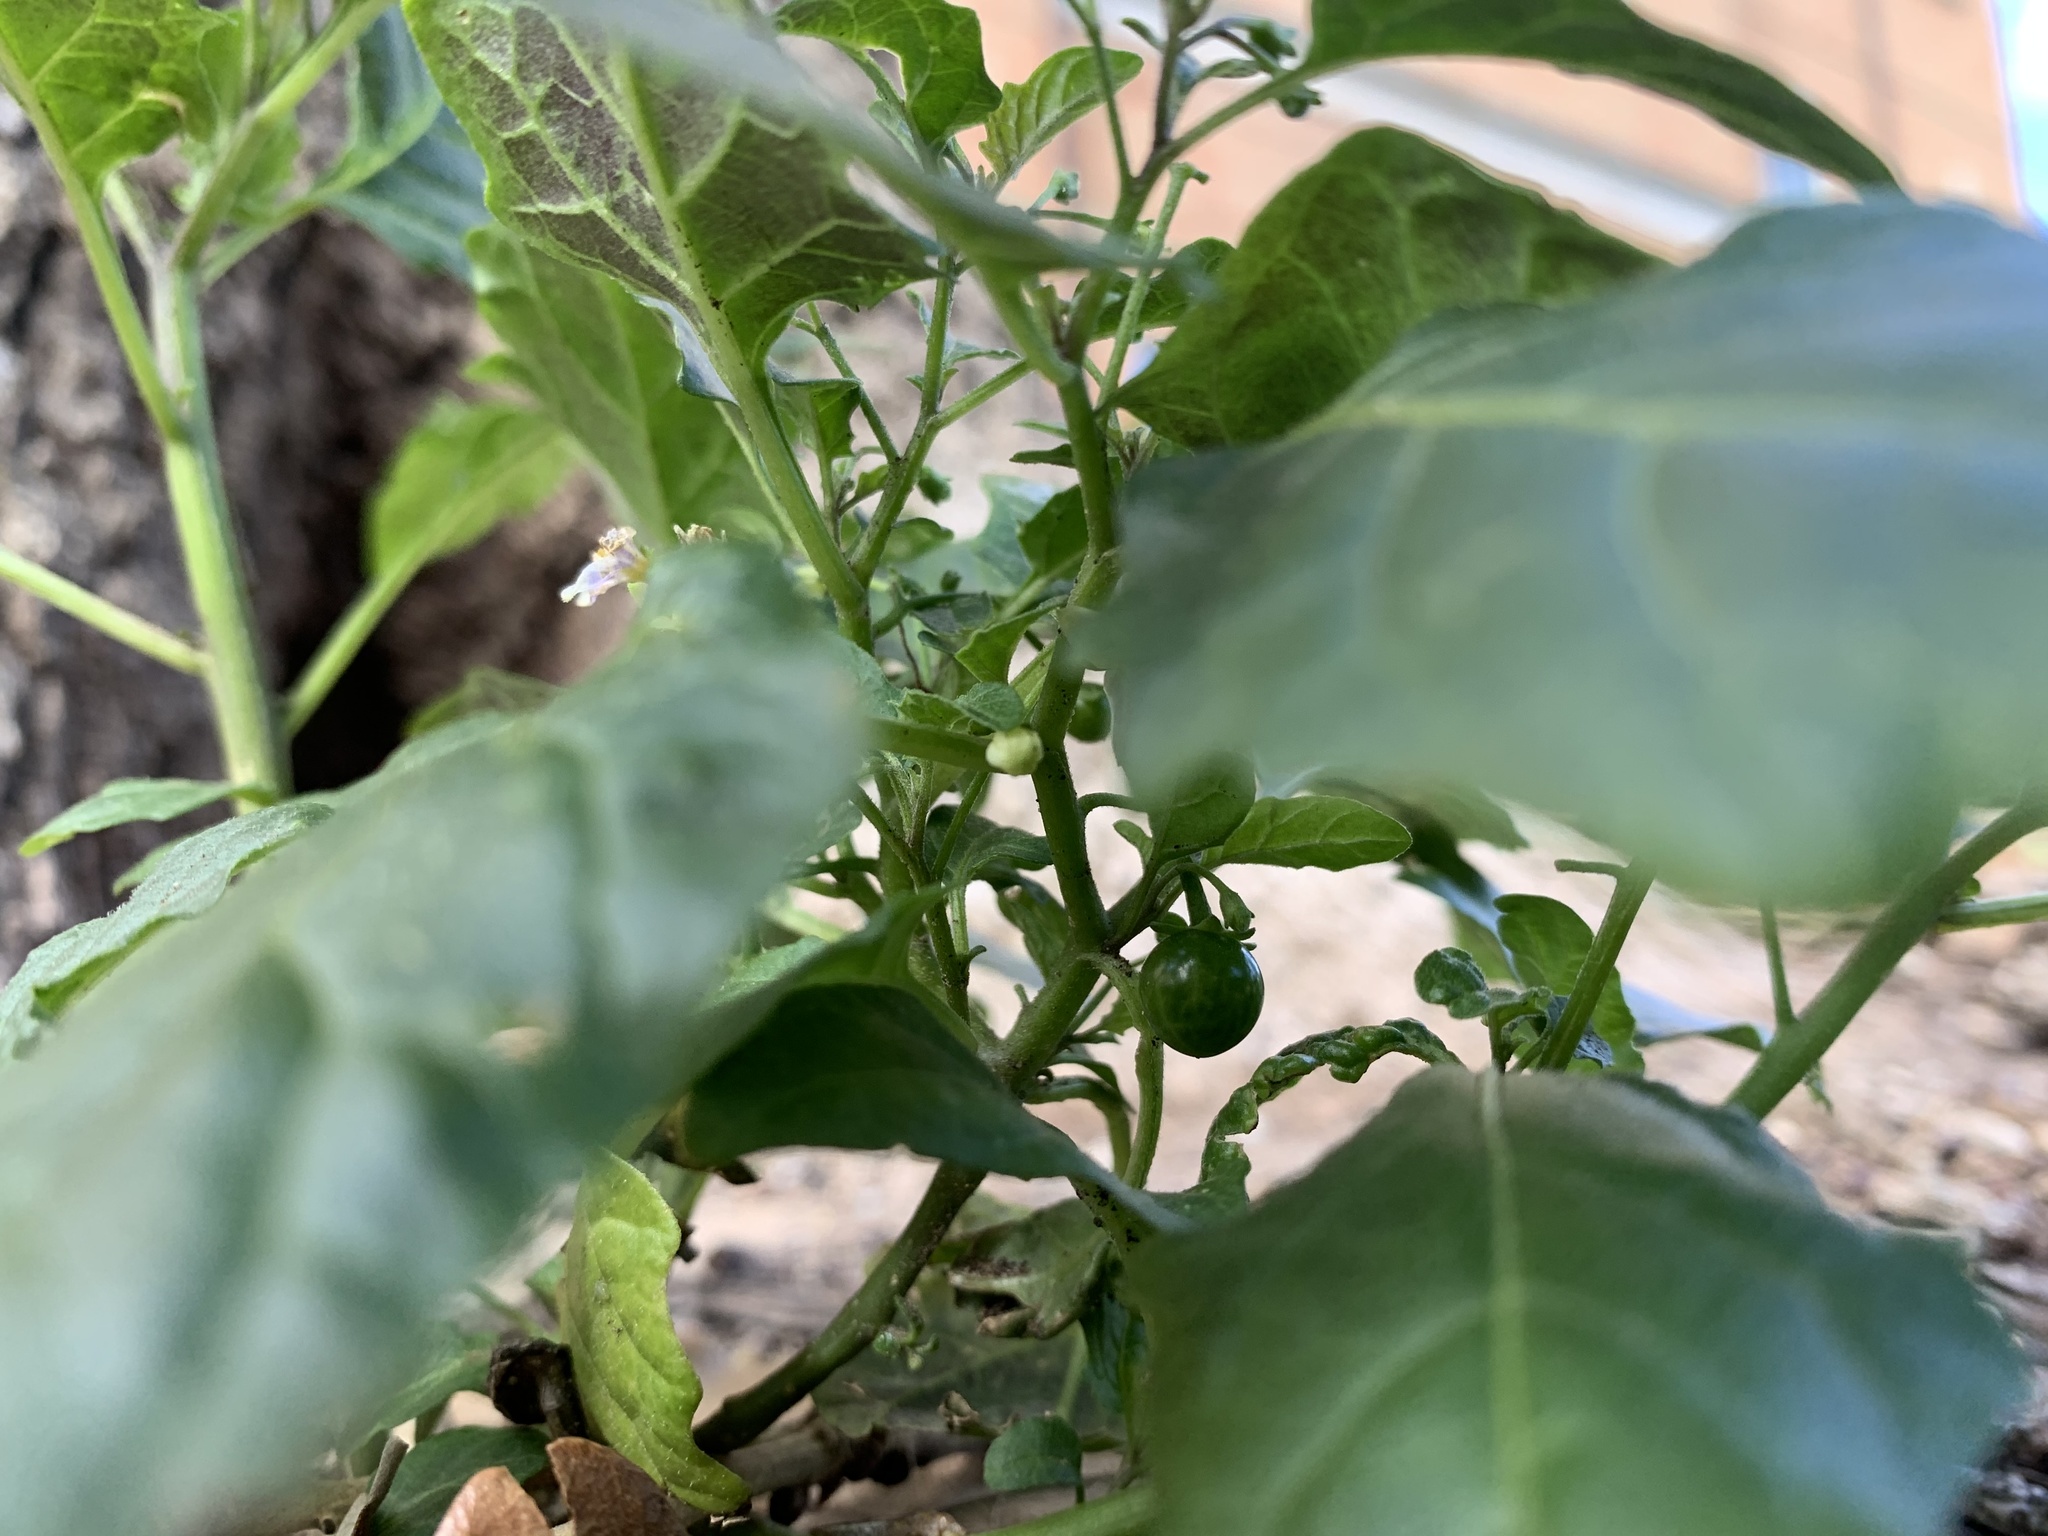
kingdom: Plantae
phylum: Tracheophyta
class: Magnoliopsida
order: Solanales
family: Solanaceae
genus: Solanum
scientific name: Solanum emulans
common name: Eastern black nightshade
